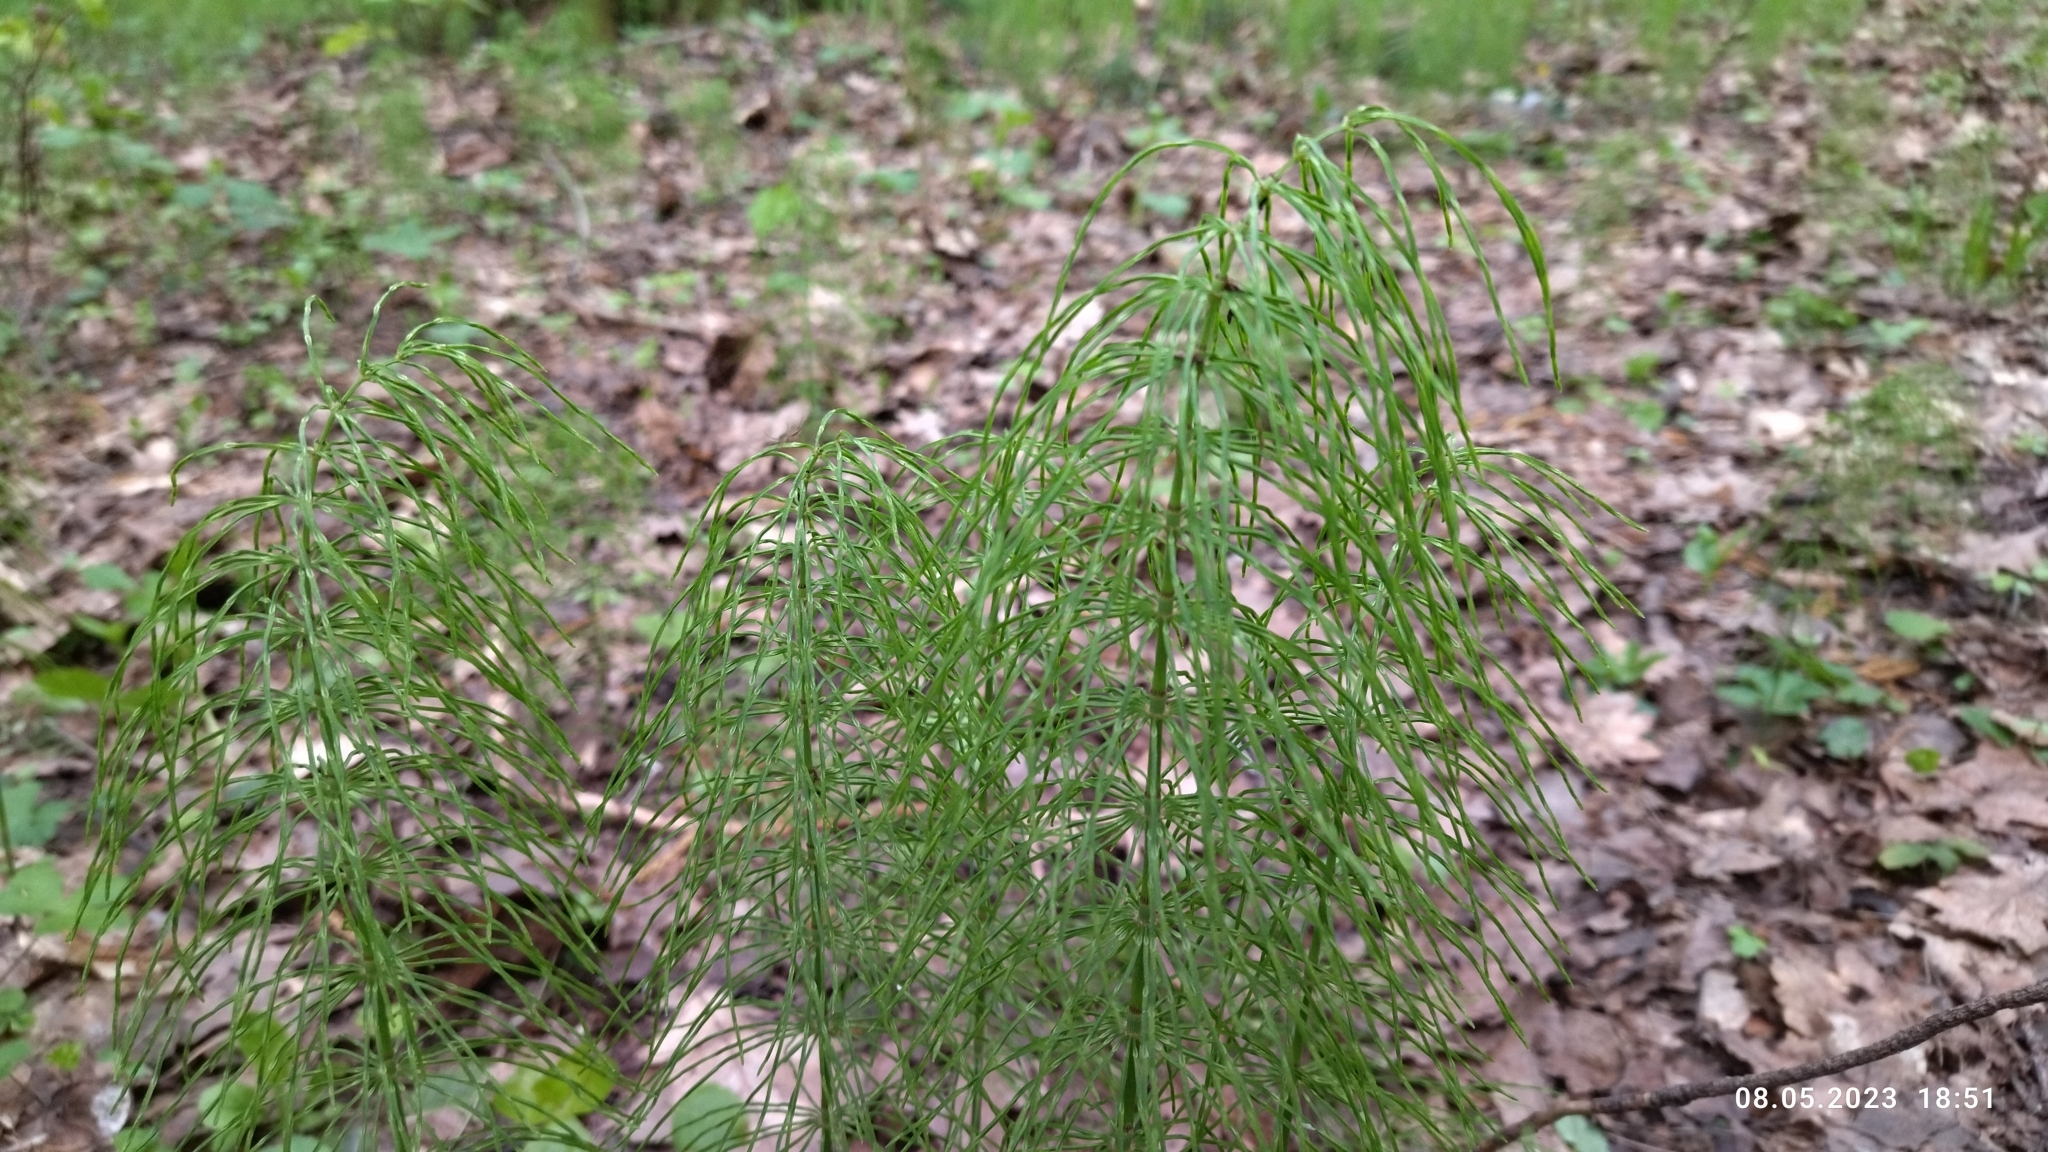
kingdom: Plantae
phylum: Tracheophyta
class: Polypodiopsida
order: Equisetales
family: Equisetaceae
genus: Equisetum
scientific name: Equisetum pratense
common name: Meadow horsetail
